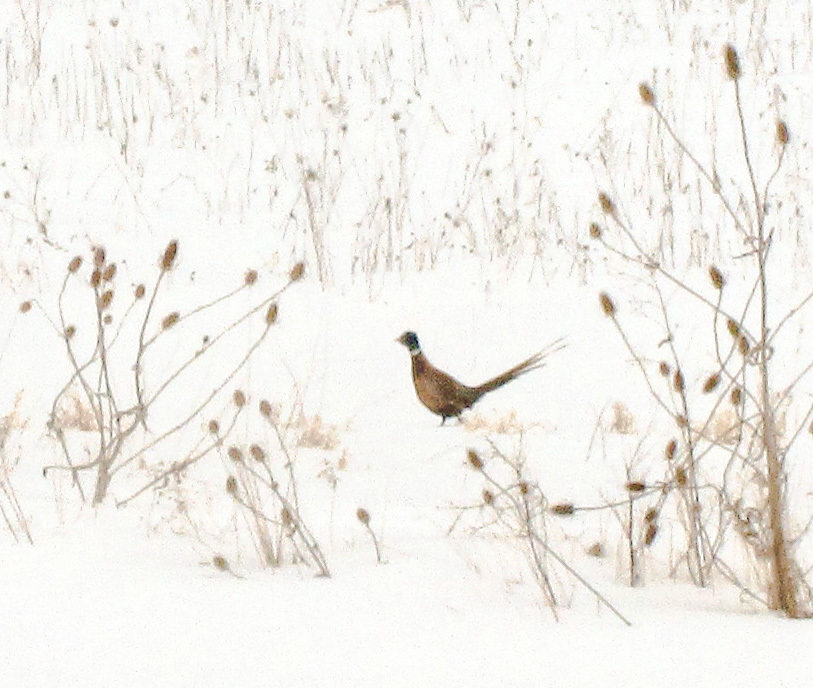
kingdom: Animalia
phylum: Chordata
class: Aves
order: Galliformes
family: Phasianidae
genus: Phasianus
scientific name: Phasianus colchicus
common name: Common pheasant
